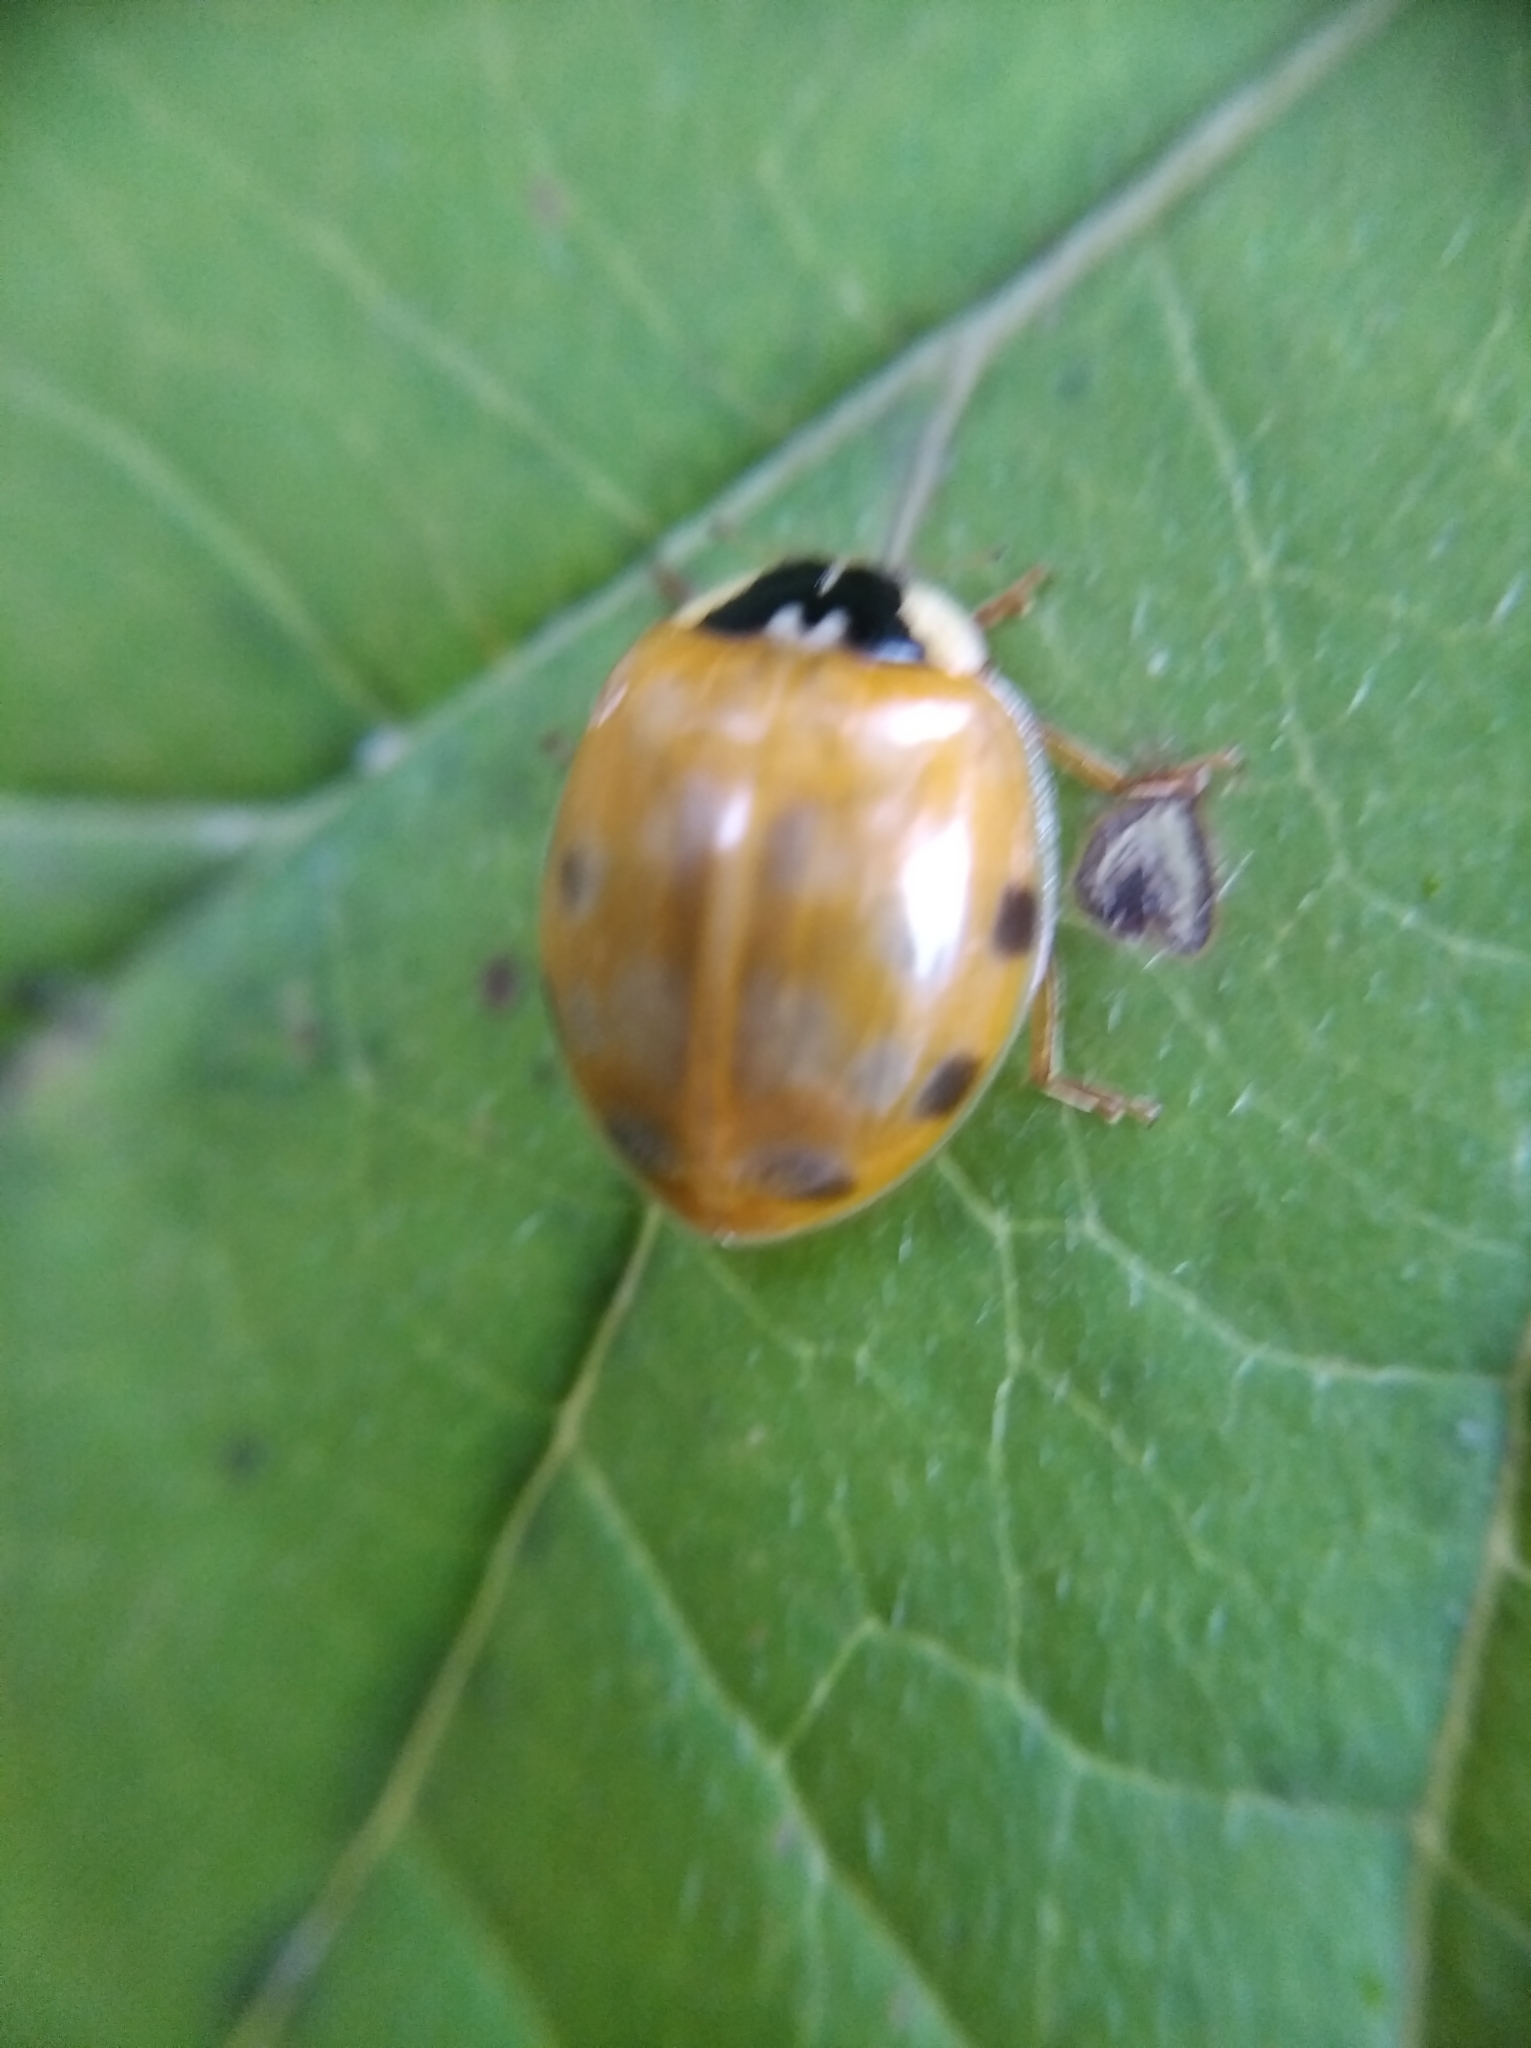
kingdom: Animalia
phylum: Arthropoda
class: Insecta
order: Coleoptera
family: Coccinellidae
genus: Harmonia
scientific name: Harmonia axyridis
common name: Harlequin ladybird
